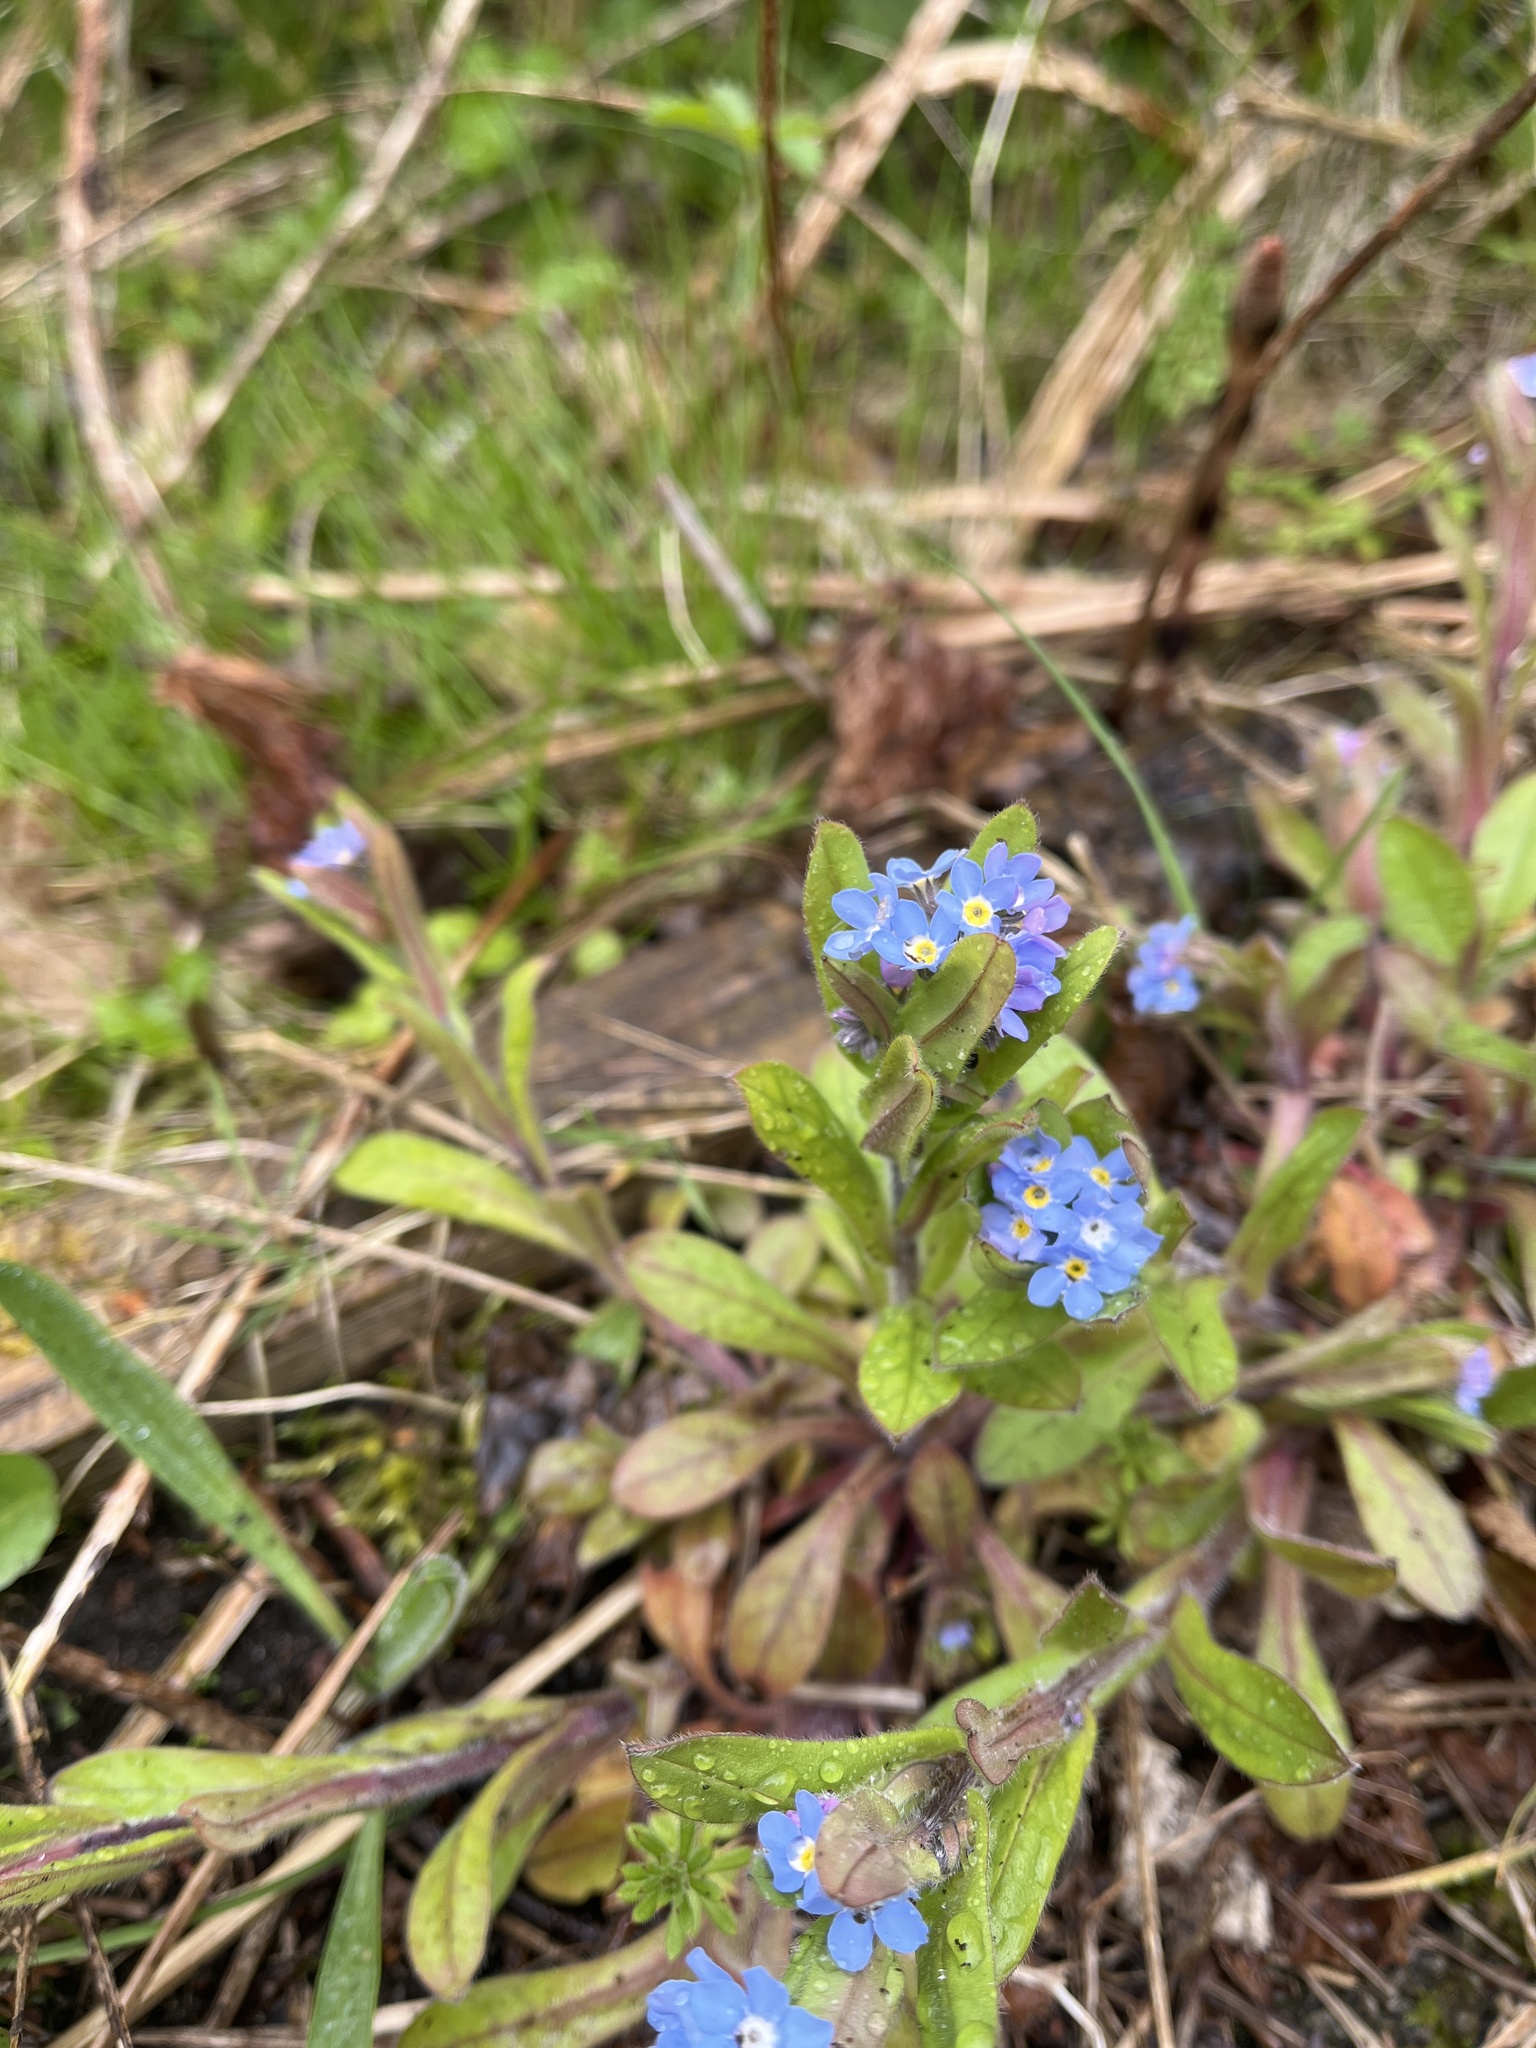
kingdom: Plantae
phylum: Tracheophyta
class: Magnoliopsida
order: Boraginales
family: Boraginaceae
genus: Myosotis
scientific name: Myosotis sylvatica
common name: Wood forget-me-not
